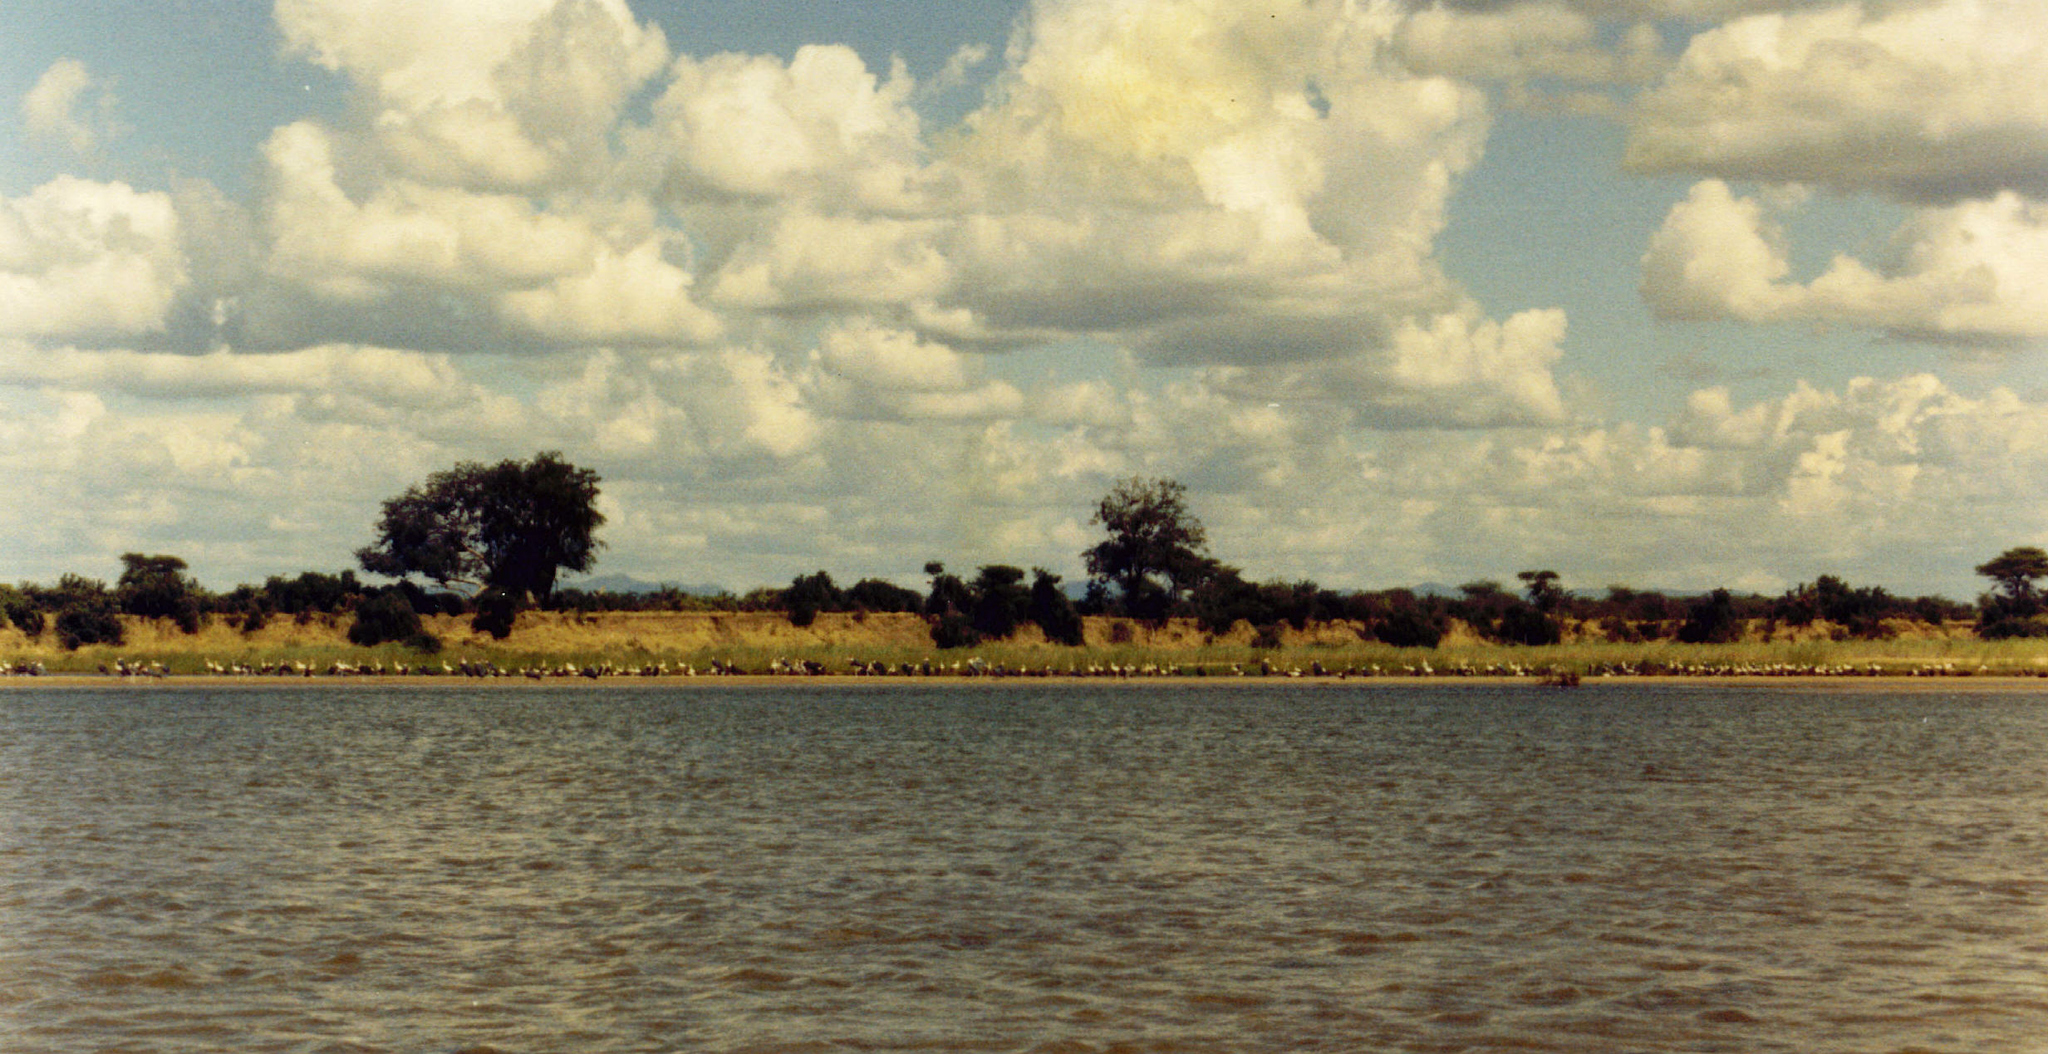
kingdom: Animalia
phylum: Chordata
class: Aves
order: Ciconiiformes
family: Ciconiidae
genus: Leptoptilos
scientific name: Leptoptilos crumenifer
